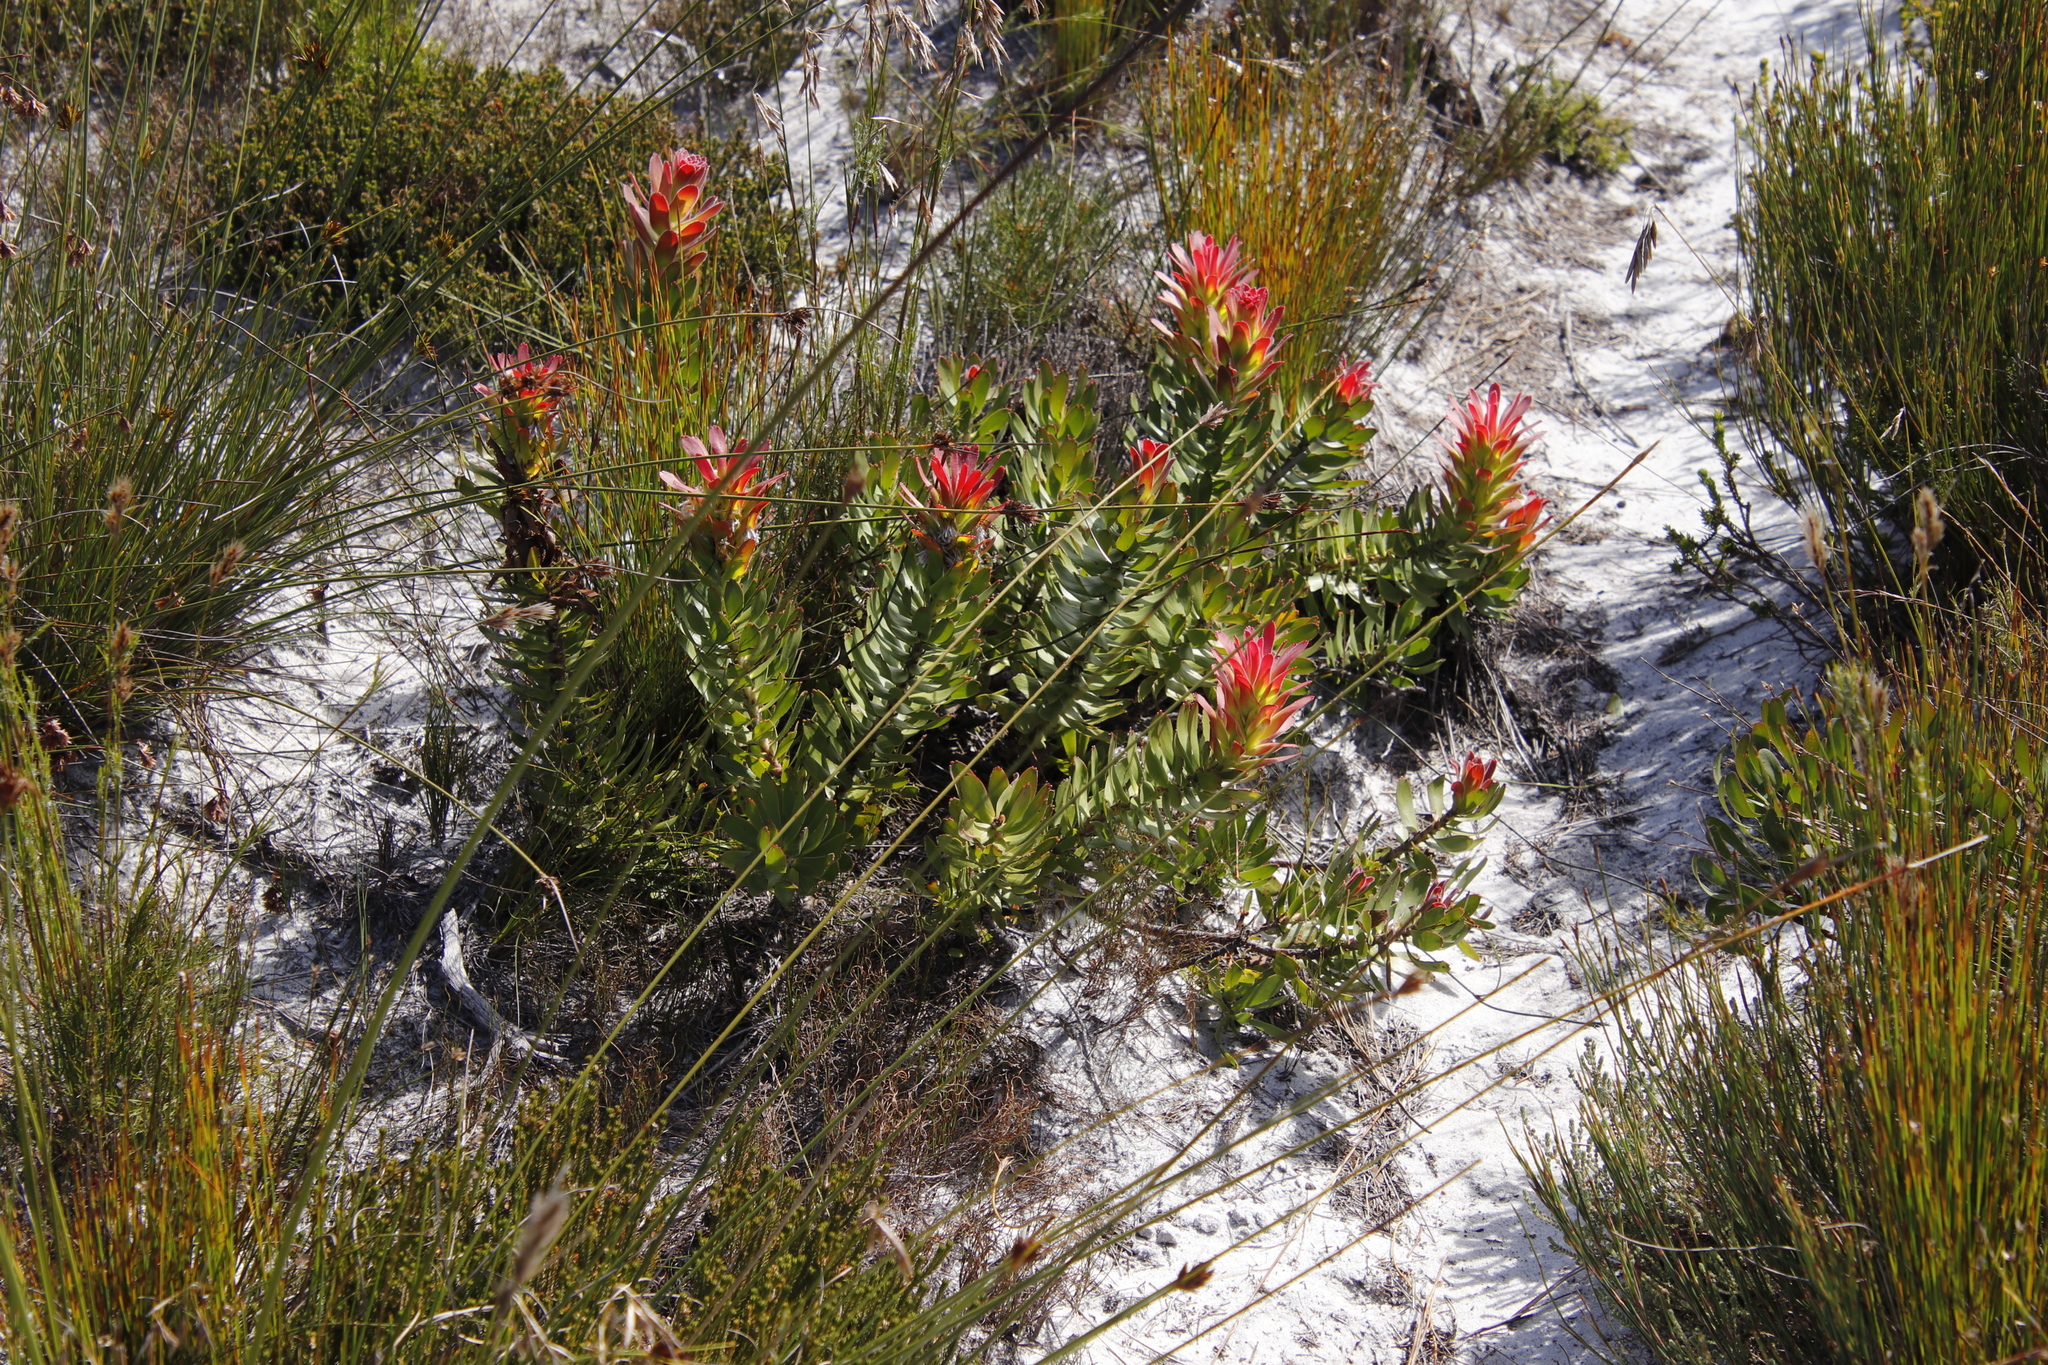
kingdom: Plantae
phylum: Tracheophyta
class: Magnoliopsida
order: Proteales
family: Proteaceae
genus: Mimetes
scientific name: Mimetes cucullatus
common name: Common pagoda
